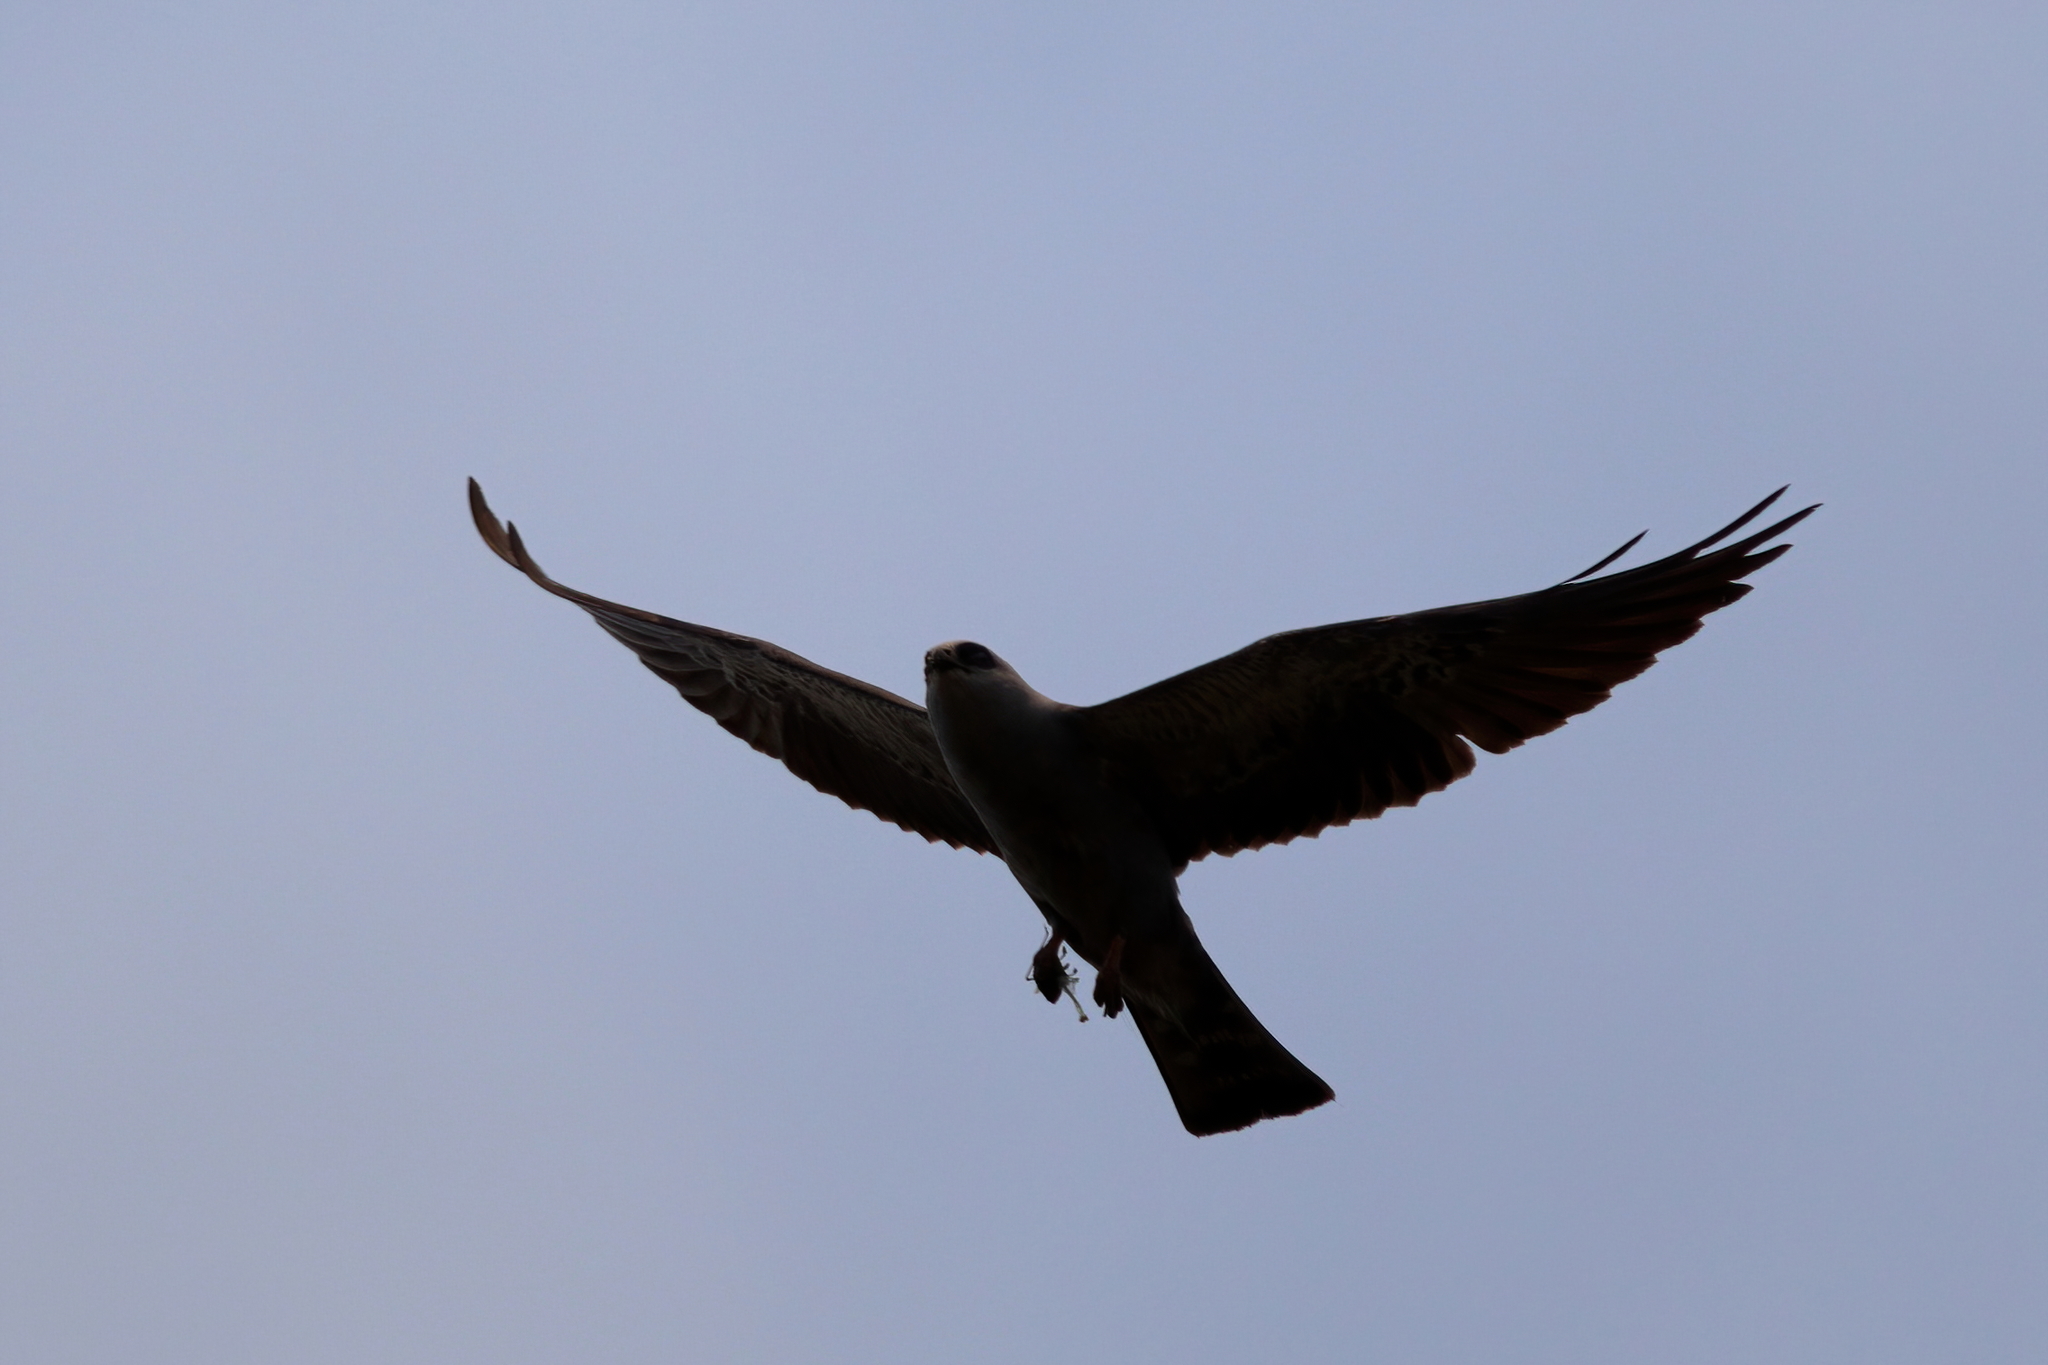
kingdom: Animalia
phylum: Chordata
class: Aves
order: Accipitriformes
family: Accipitridae
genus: Ictinia
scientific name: Ictinia mississippiensis
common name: Mississippi kite
